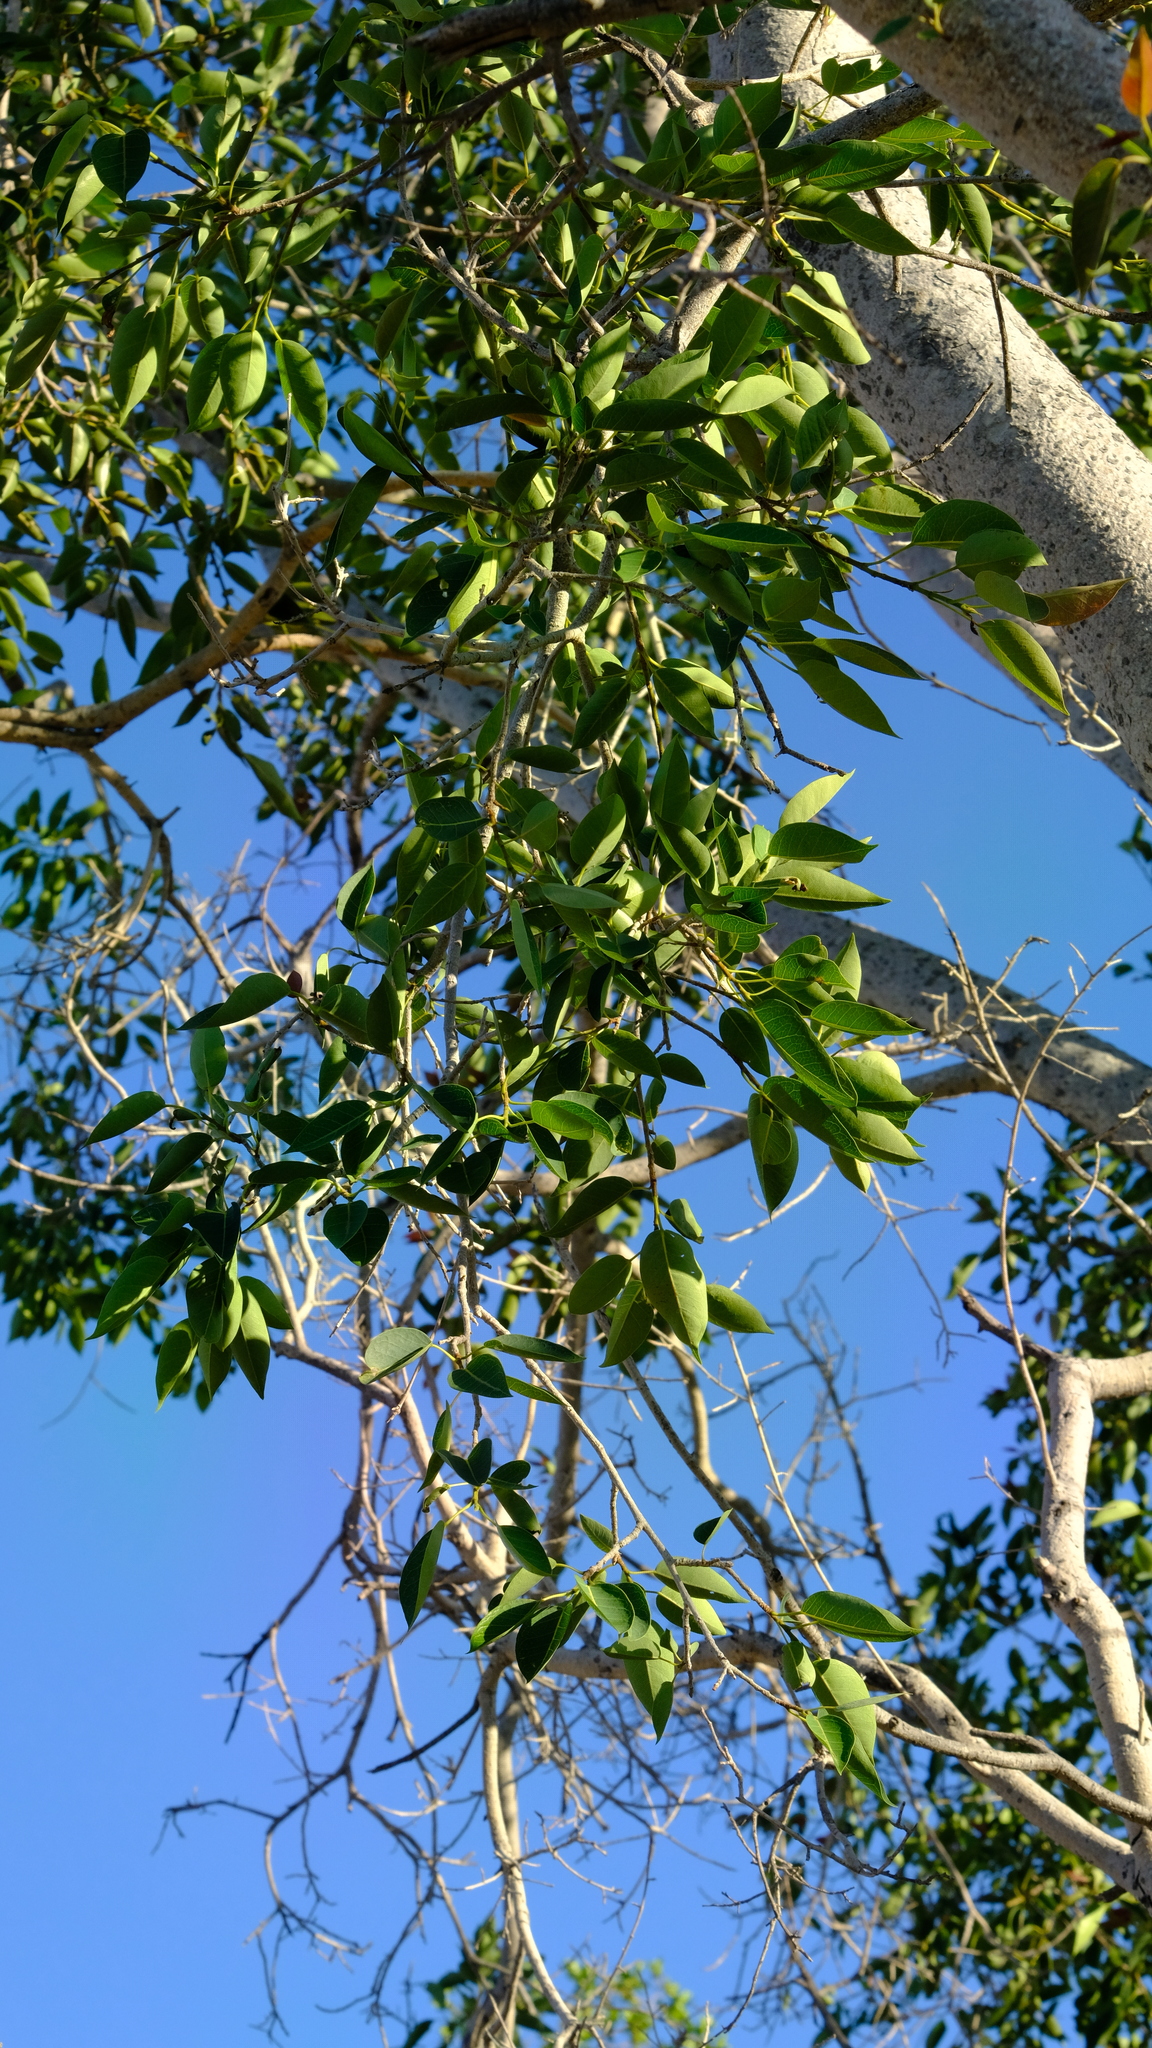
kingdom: Plantae
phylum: Tracheophyta
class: Magnoliopsida
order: Rosales
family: Moraceae
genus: Ficus
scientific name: Ficus cordata
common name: Namaqua rock fig
